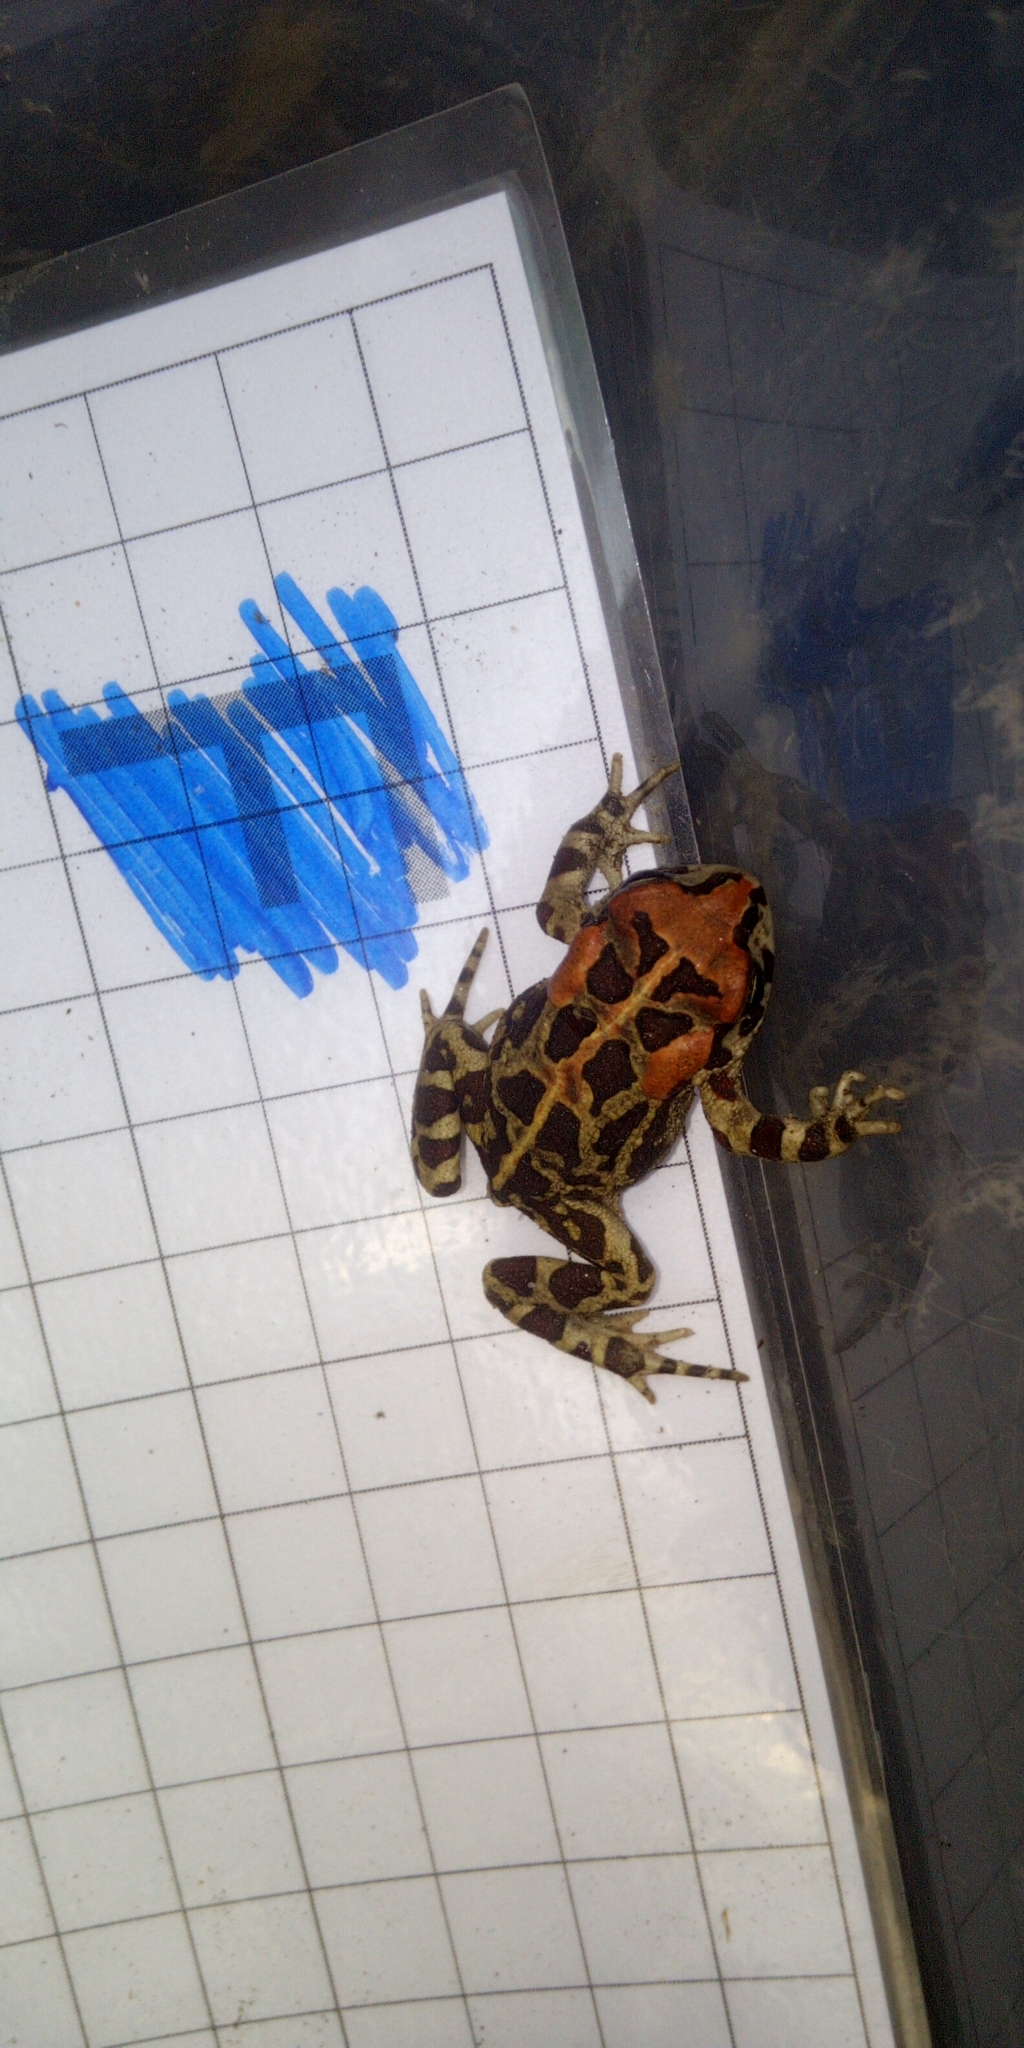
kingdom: Animalia
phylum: Chordata
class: Amphibia
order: Anura
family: Bufonidae
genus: Sclerophrys
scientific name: Sclerophrys pantherina
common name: Panther toad
